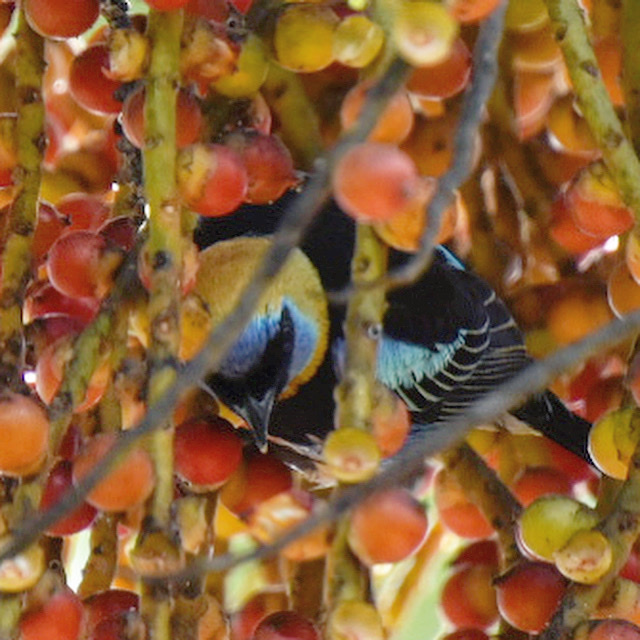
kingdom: Animalia
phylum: Chordata
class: Aves
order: Passeriformes
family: Thraupidae
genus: Stilpnia
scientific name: Stilpnia larvata
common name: Golden-hooded tanager
